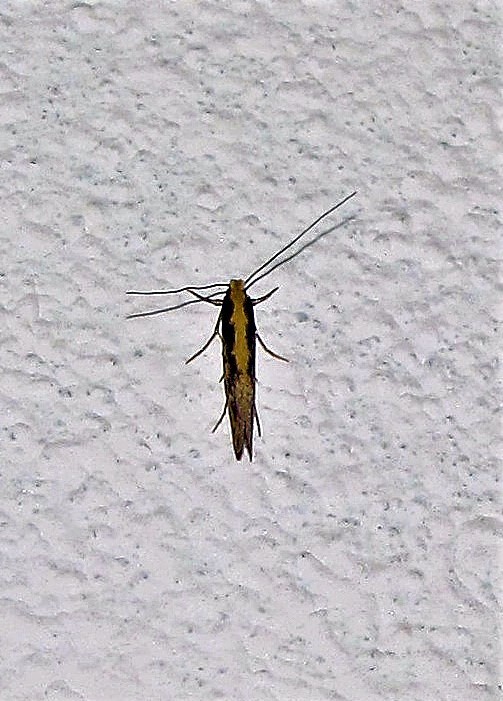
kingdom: Animalia
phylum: Arthropoda
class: Insecta
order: Lepidoptera
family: Plutellidae
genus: Plutella
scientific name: Plutella xylostella
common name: Diamond-back moth
